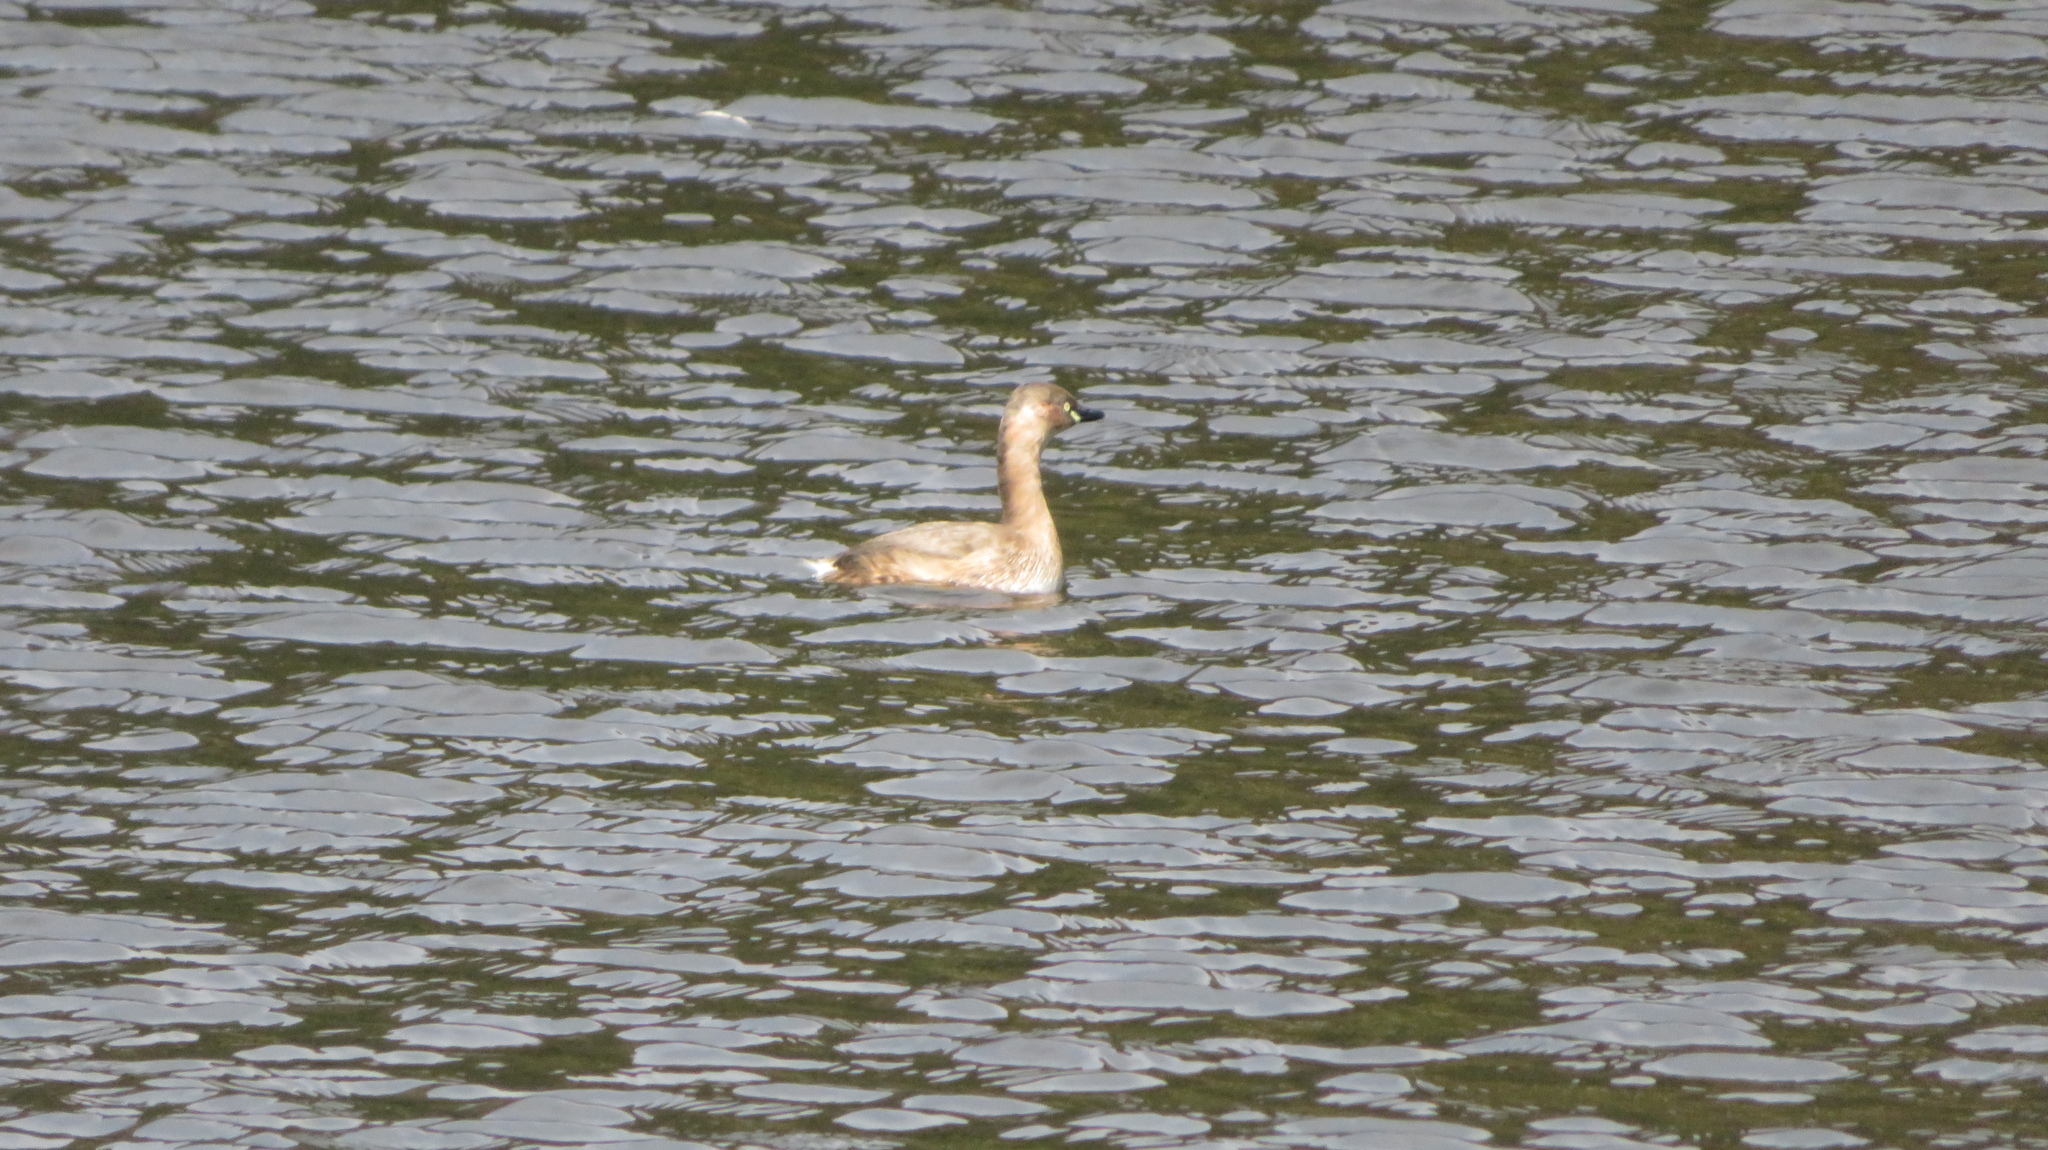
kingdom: Animalia
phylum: Chordata
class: Aves
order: Podicipediformes
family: Podicipedidae
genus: Tachybaptus
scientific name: Tachybaptus ruficollis
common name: Little grebe
